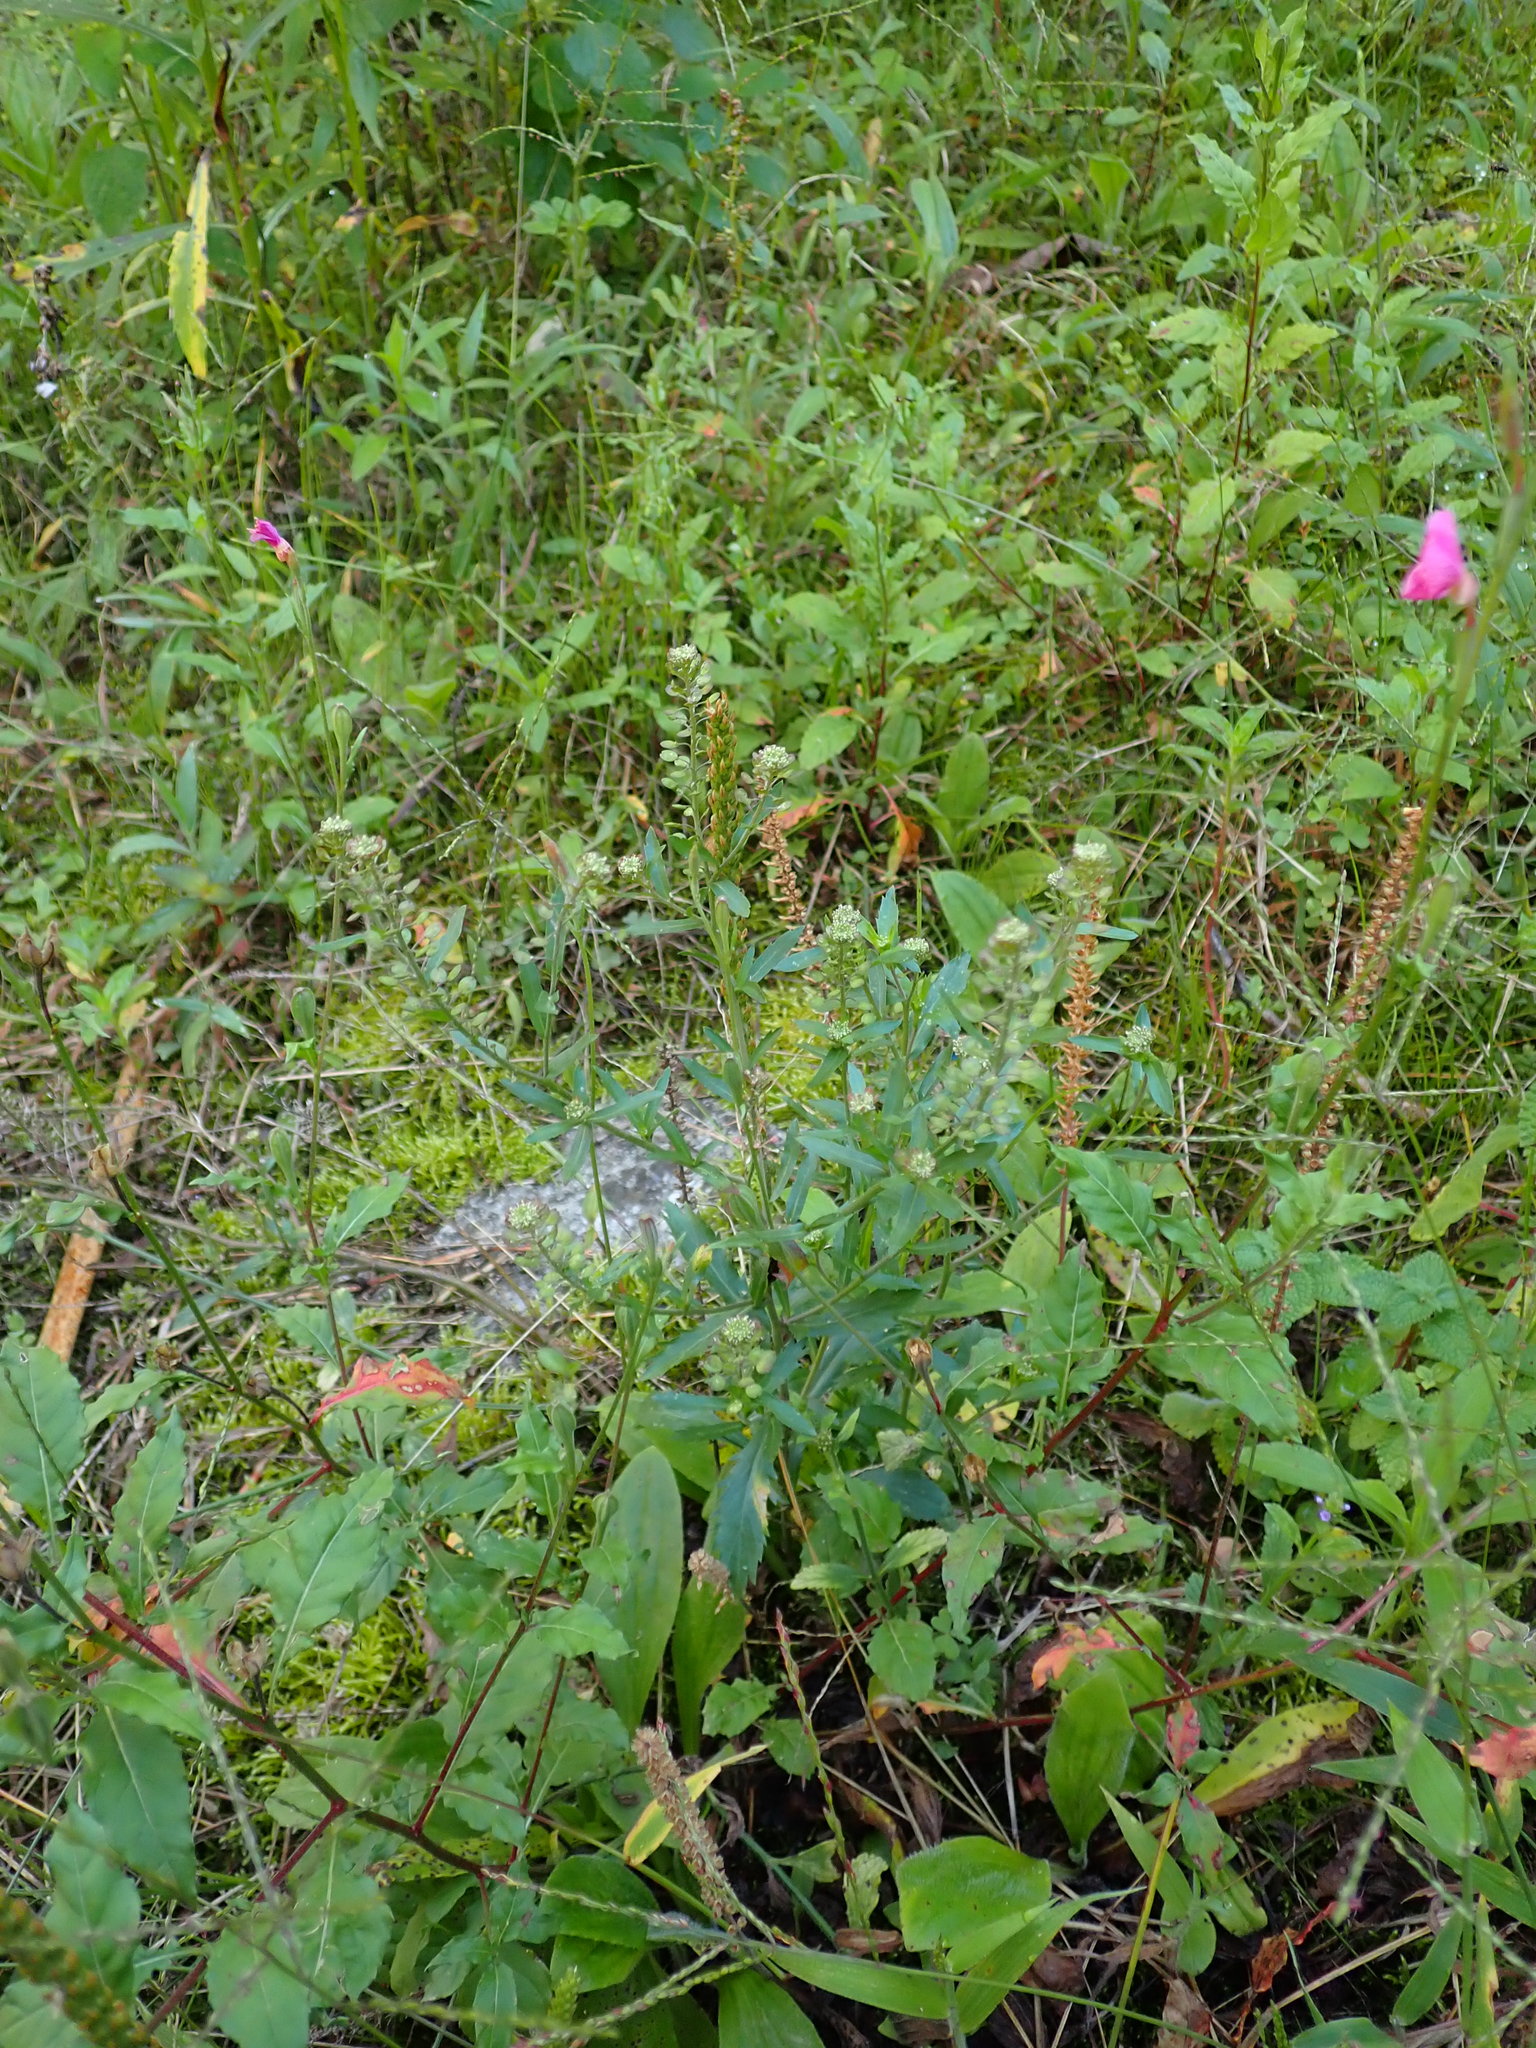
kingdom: Plantae
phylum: Tracheophyta
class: Magnoliopsida
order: Brassicales
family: Brassicaceae
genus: Capsella
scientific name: Capsella bursa-pastoris
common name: Shepherd's purse
